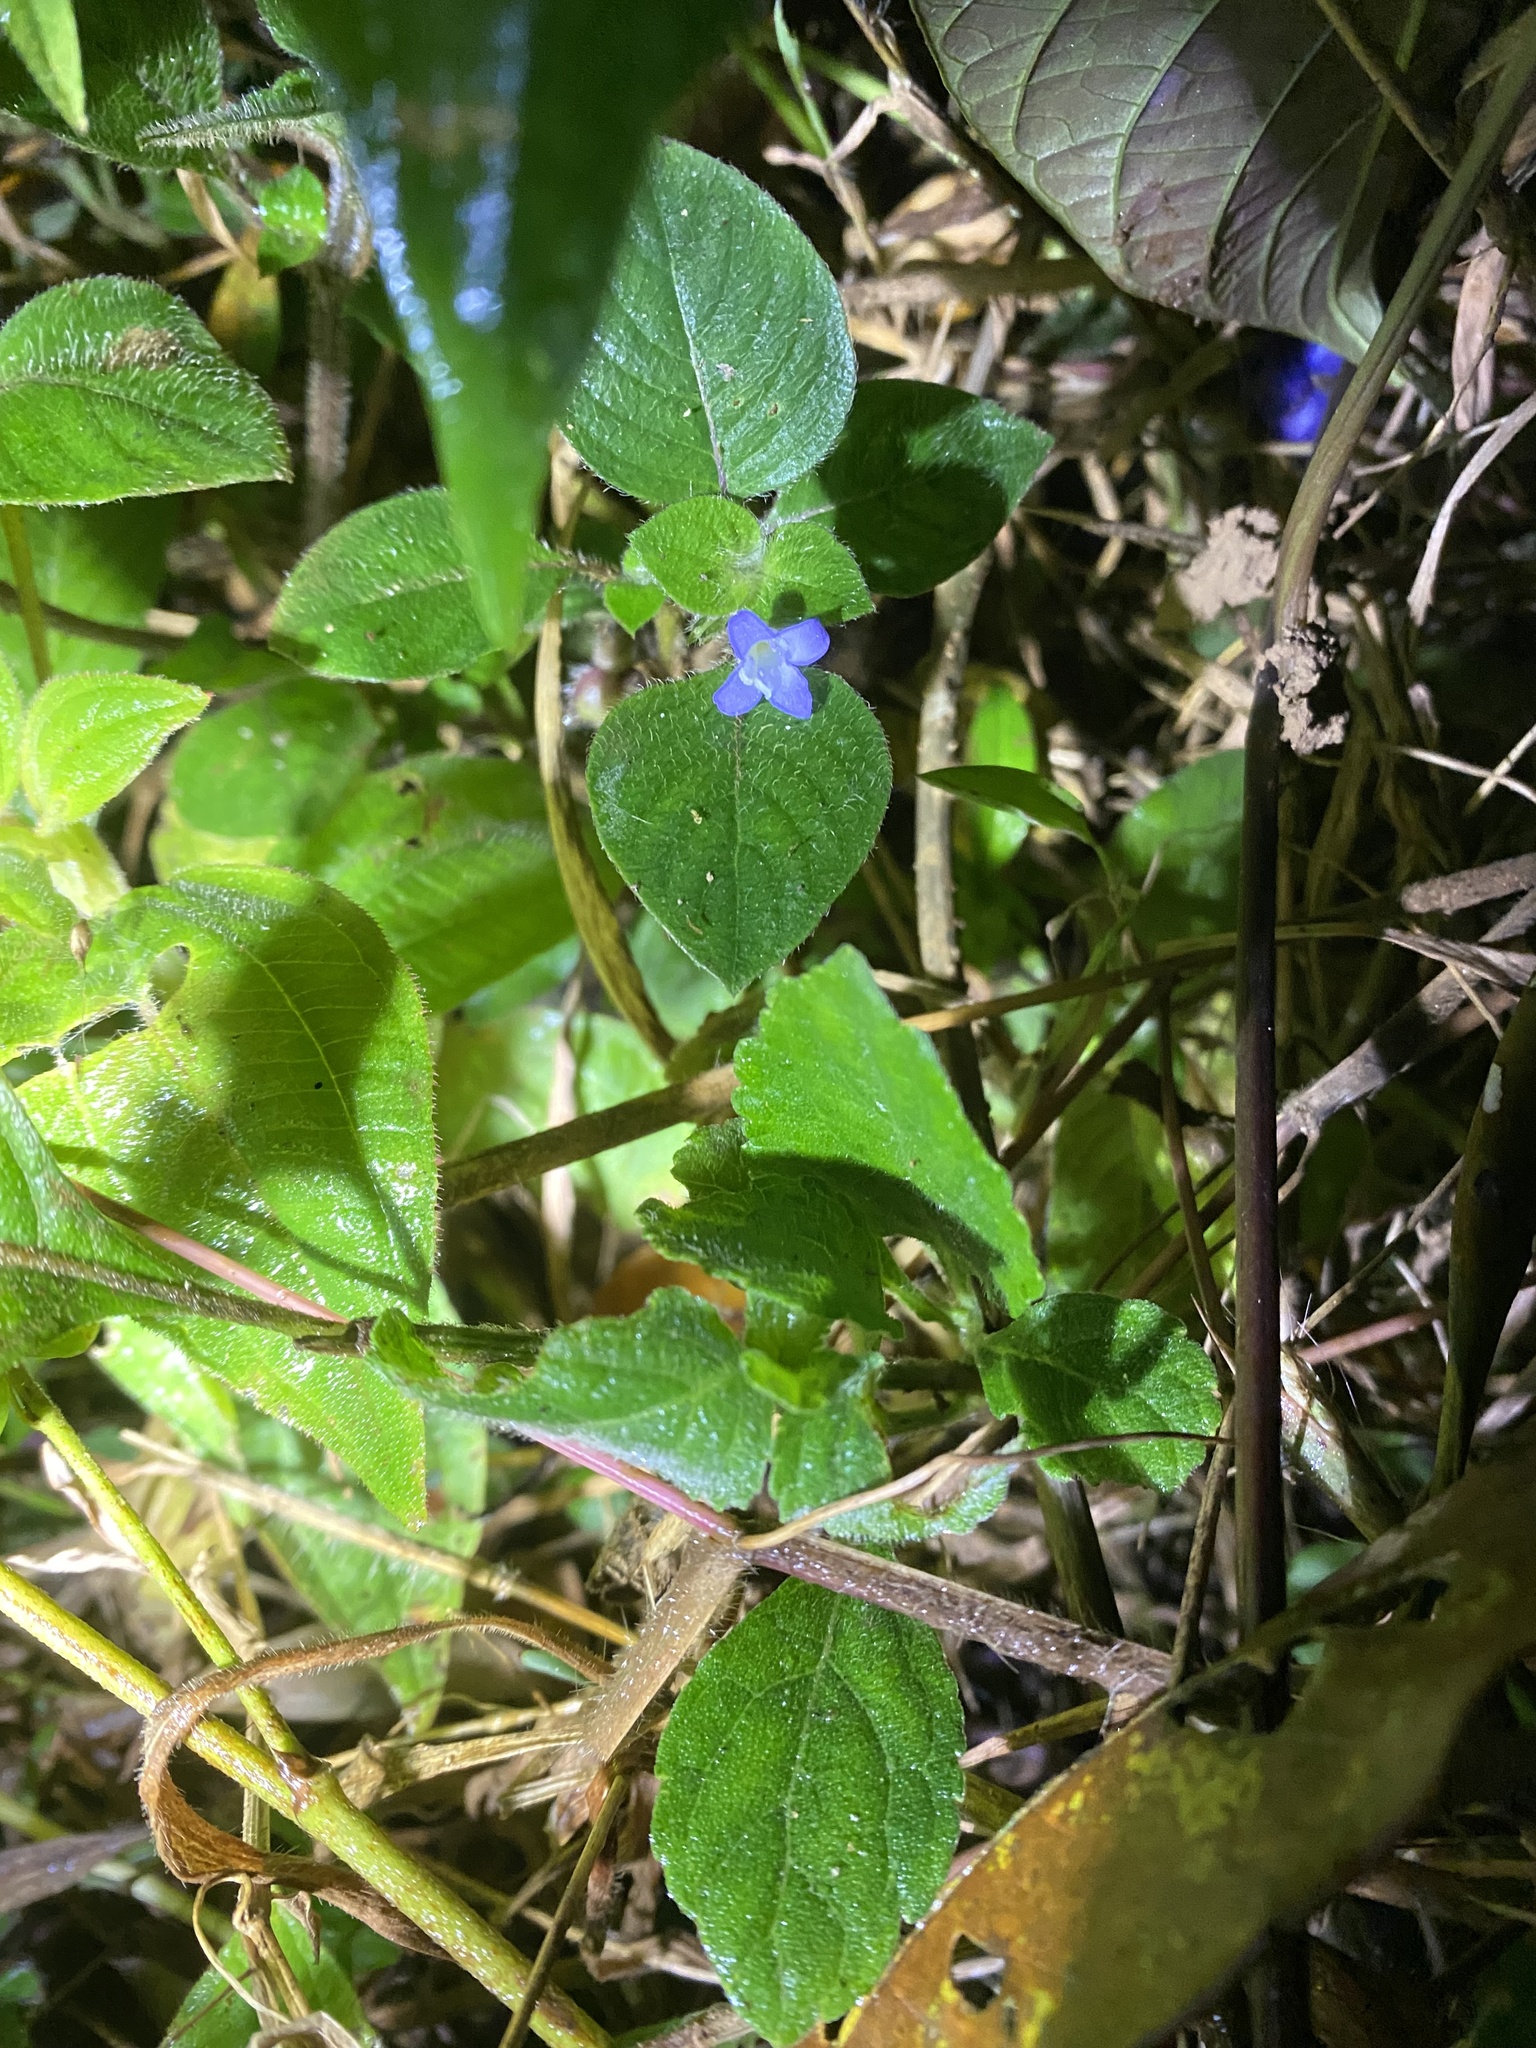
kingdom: Plantae
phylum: Tracheophyta
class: Magnoliopsida
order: Gentianales
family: Rubiaceae
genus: Coccocypselum
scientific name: Coccocypselum hirsutum
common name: Yerba de guava
